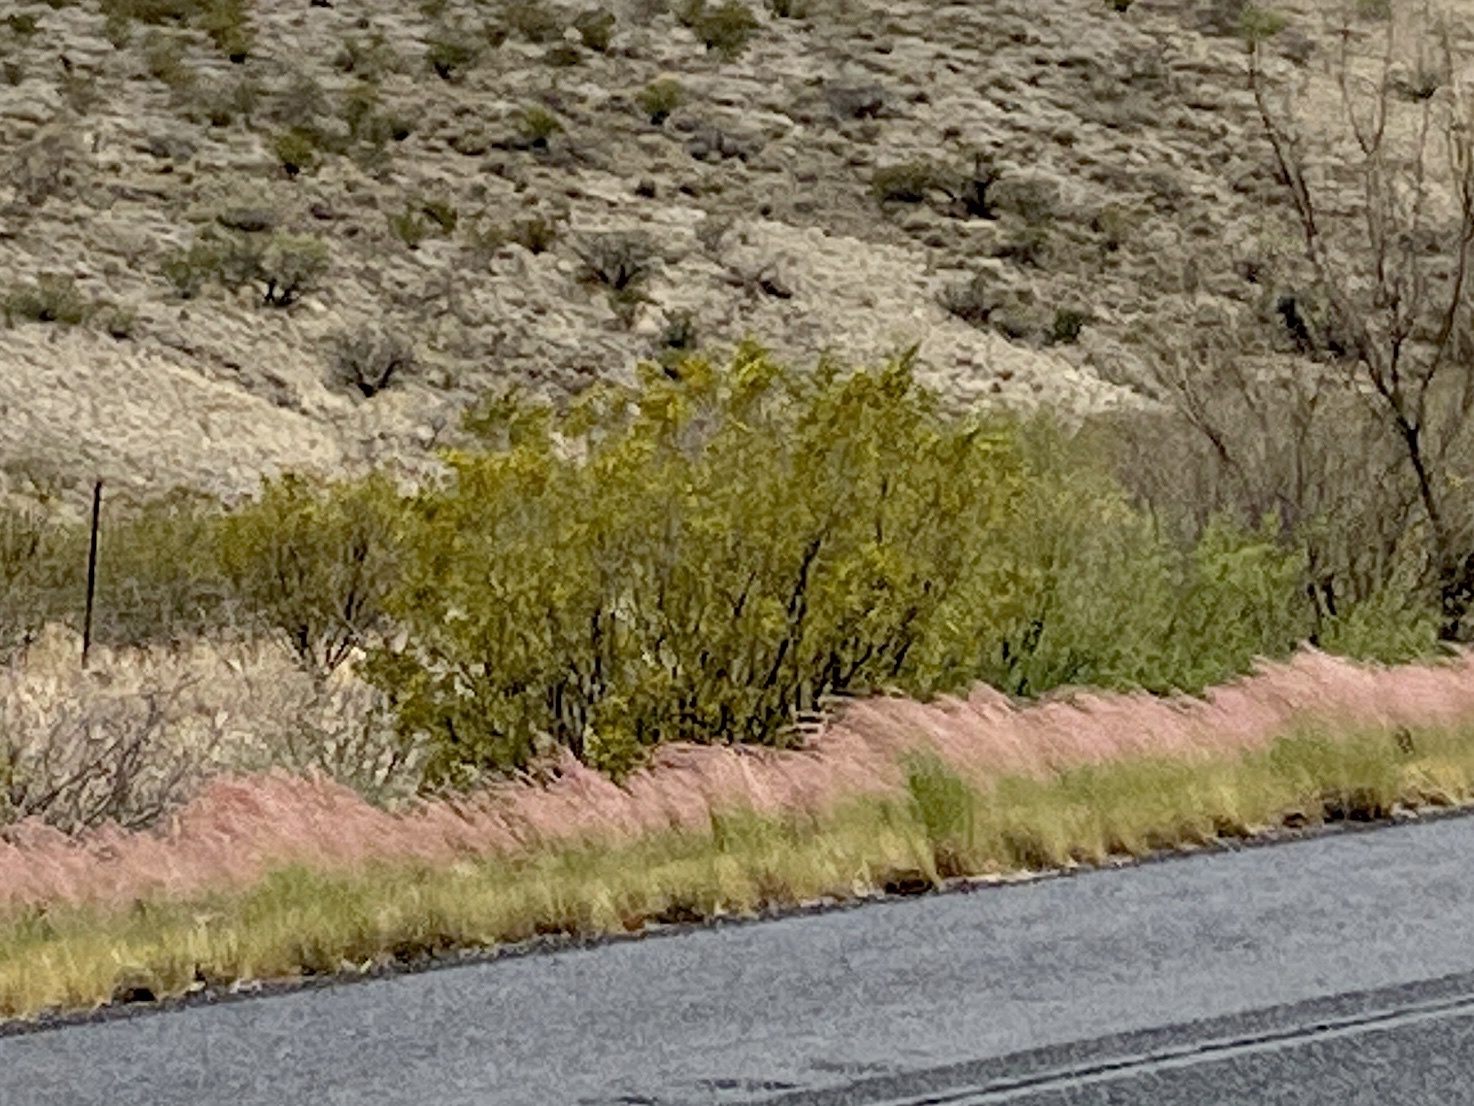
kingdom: Plantae
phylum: Tracheophyta
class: Magnoliopsida
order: Zygophyllales
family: Zygophyllaceae
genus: Larrea
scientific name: Larrea tridentata
